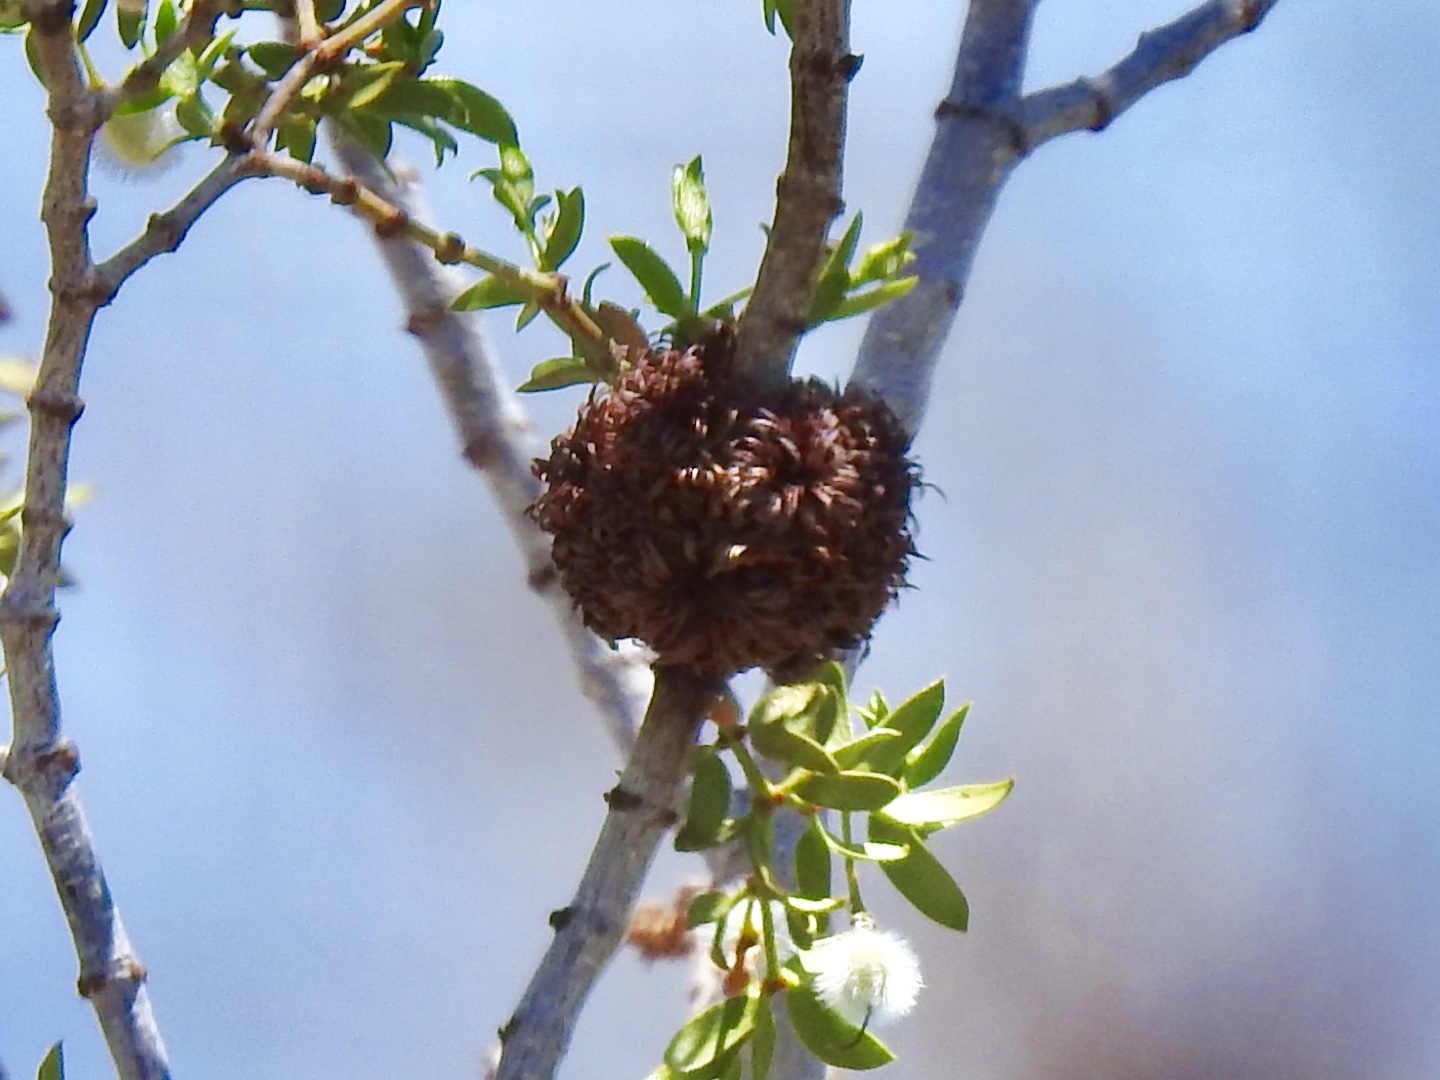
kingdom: Animalia
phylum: Arthropoda
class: Insecta
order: Diptera
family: Cecidomyiidae
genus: Asphondylia
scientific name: Asphondylia auripila
